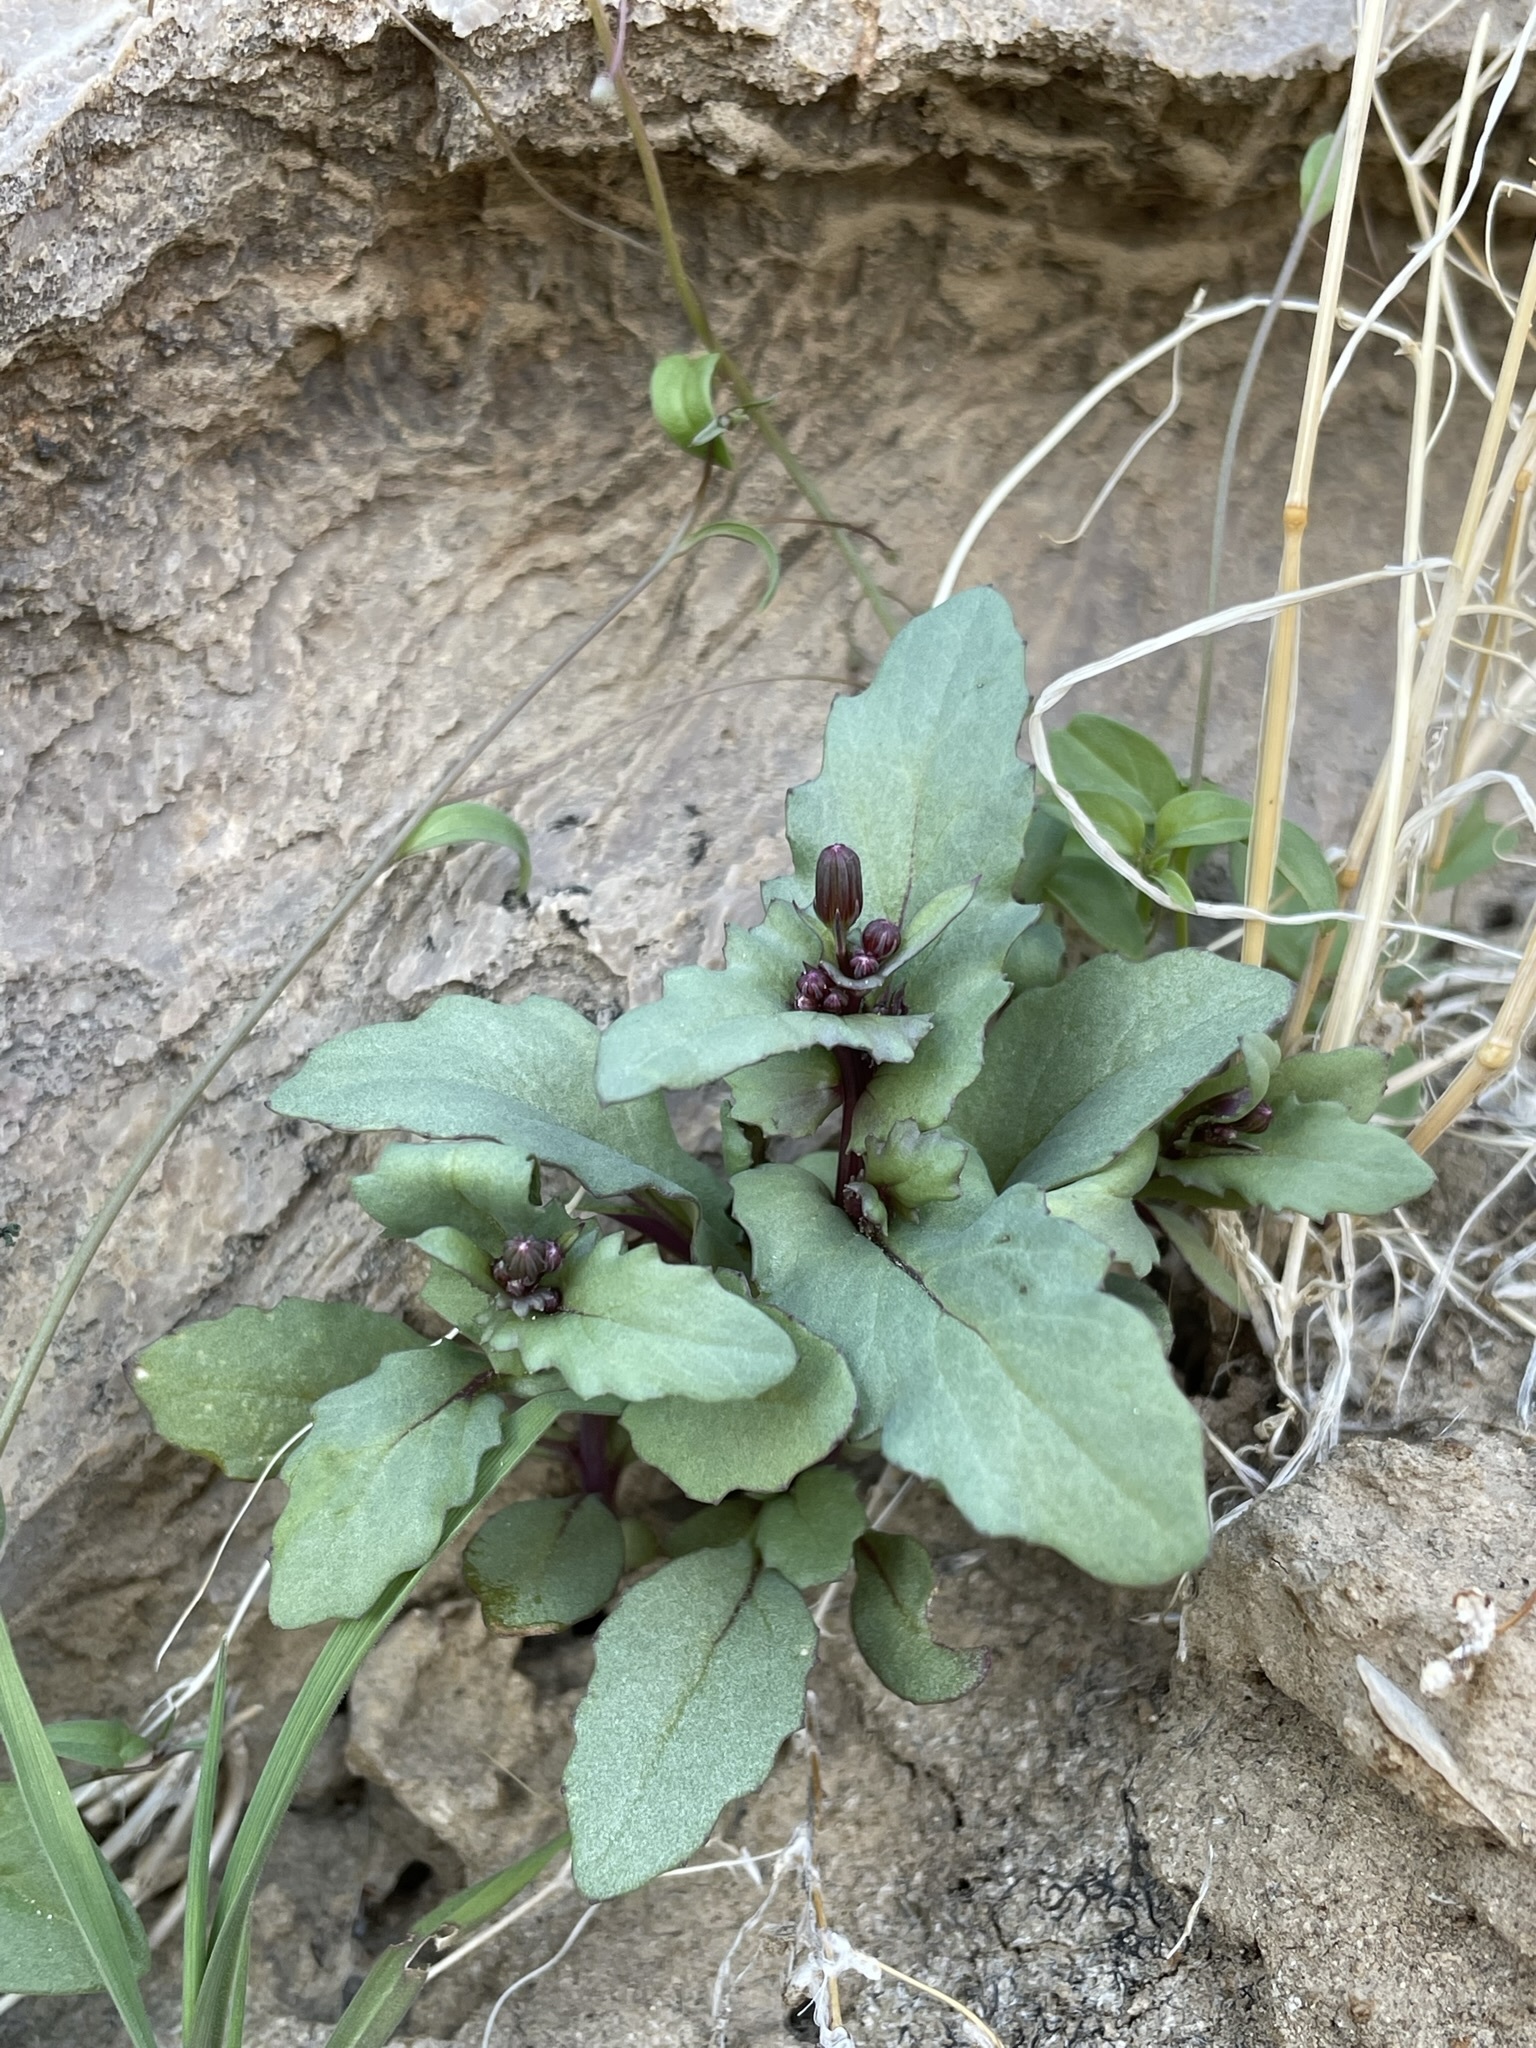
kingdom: Plantae
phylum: Tracheophyta
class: Magnoliopsida
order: Asterales
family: Asteraceae
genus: Senecio
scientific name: Senecio mohavensis
